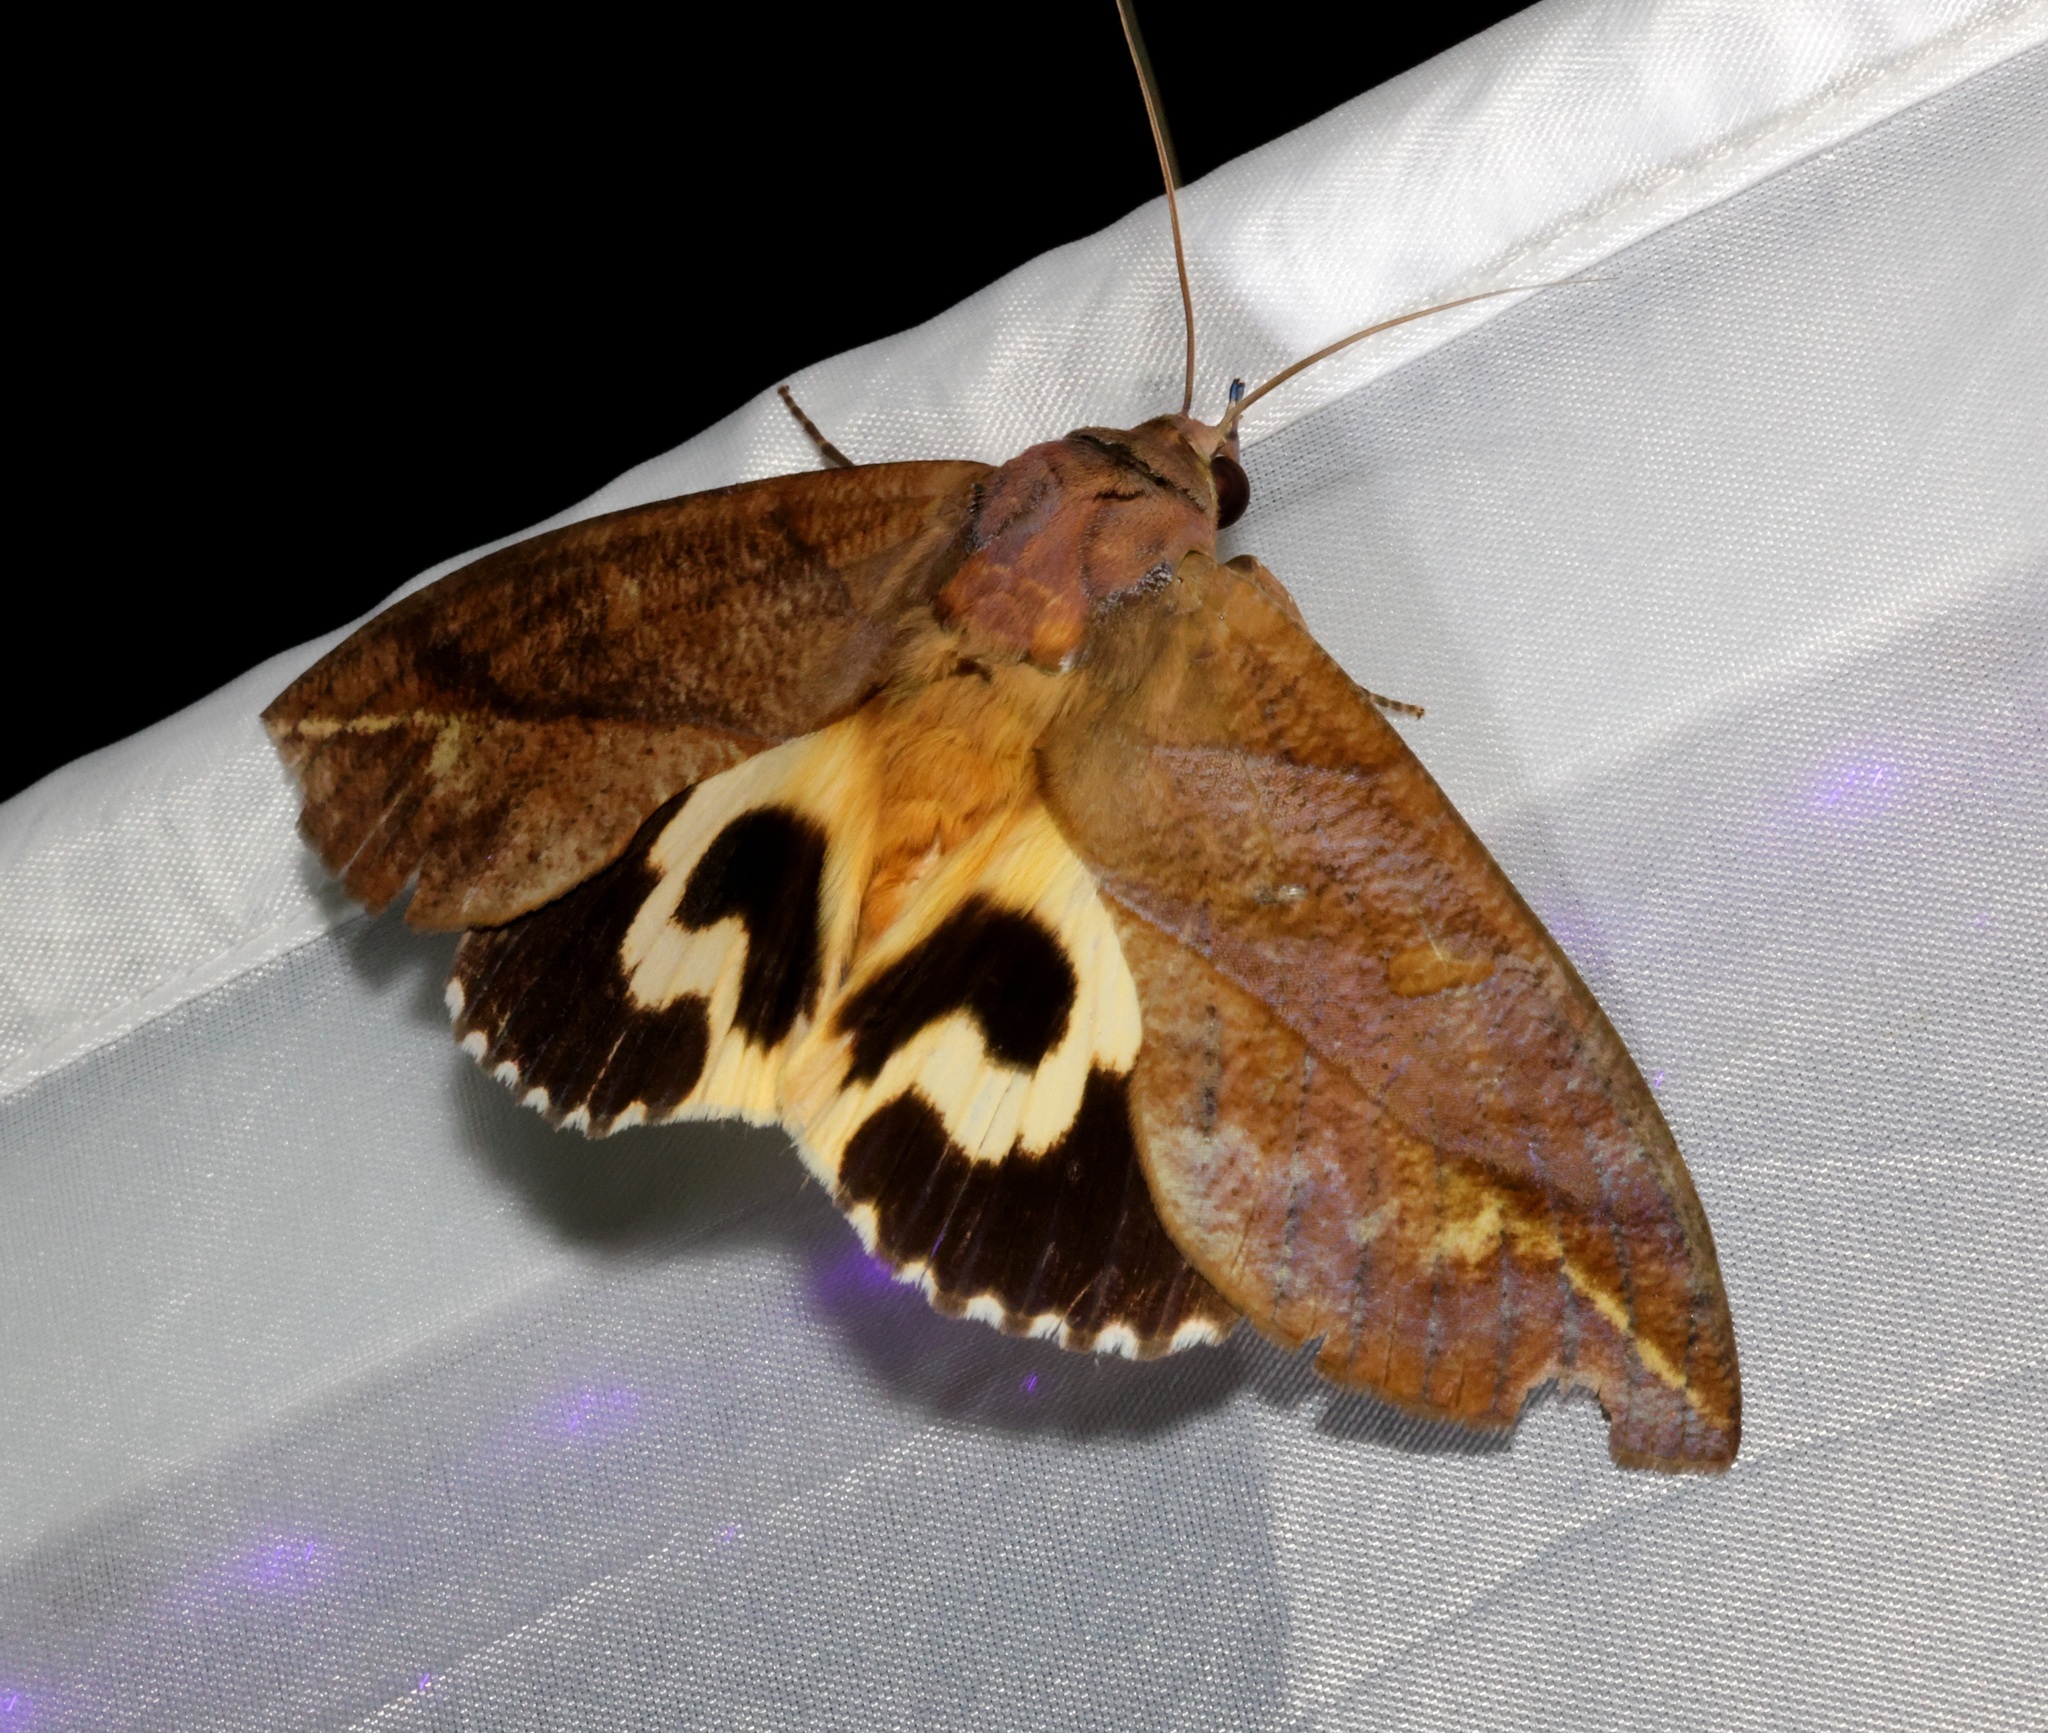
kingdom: Animalia
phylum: Arthropoda
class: Insecta
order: Lepidoptera
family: Erebidae
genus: Eudocima
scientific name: Eudocima phalonia
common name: Wasp
